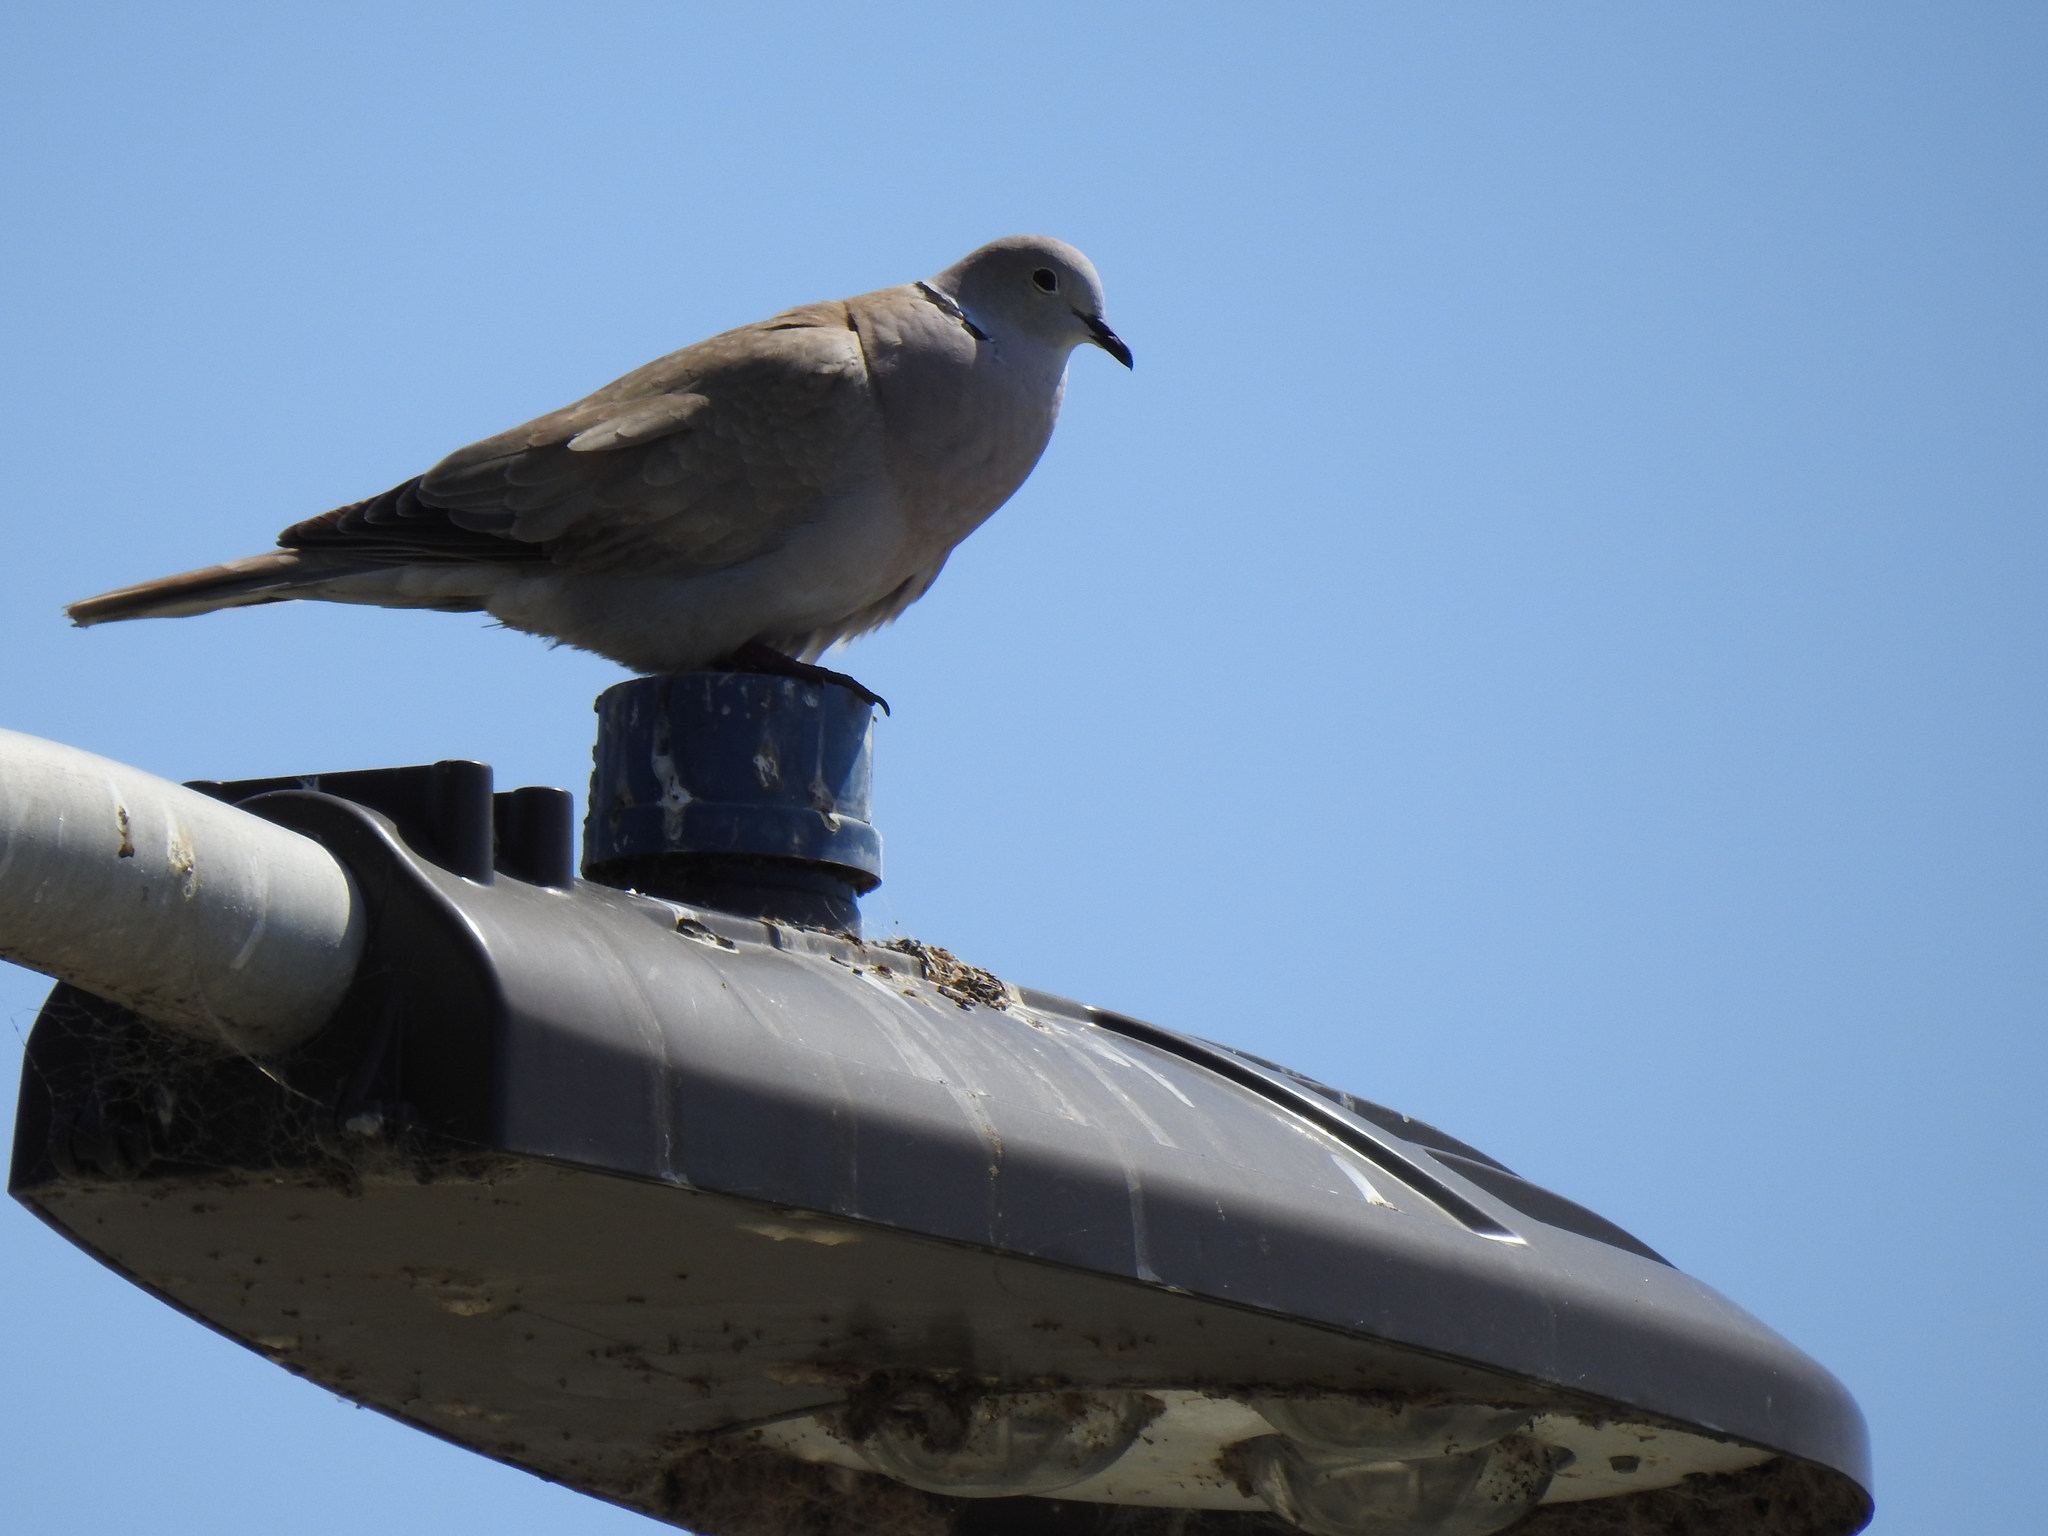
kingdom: Animalia
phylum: Chordata
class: Aves
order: Columbiformes
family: Columbidae
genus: Streptopelia
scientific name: Streptopelia decaocto
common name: Eurasian collared dove
